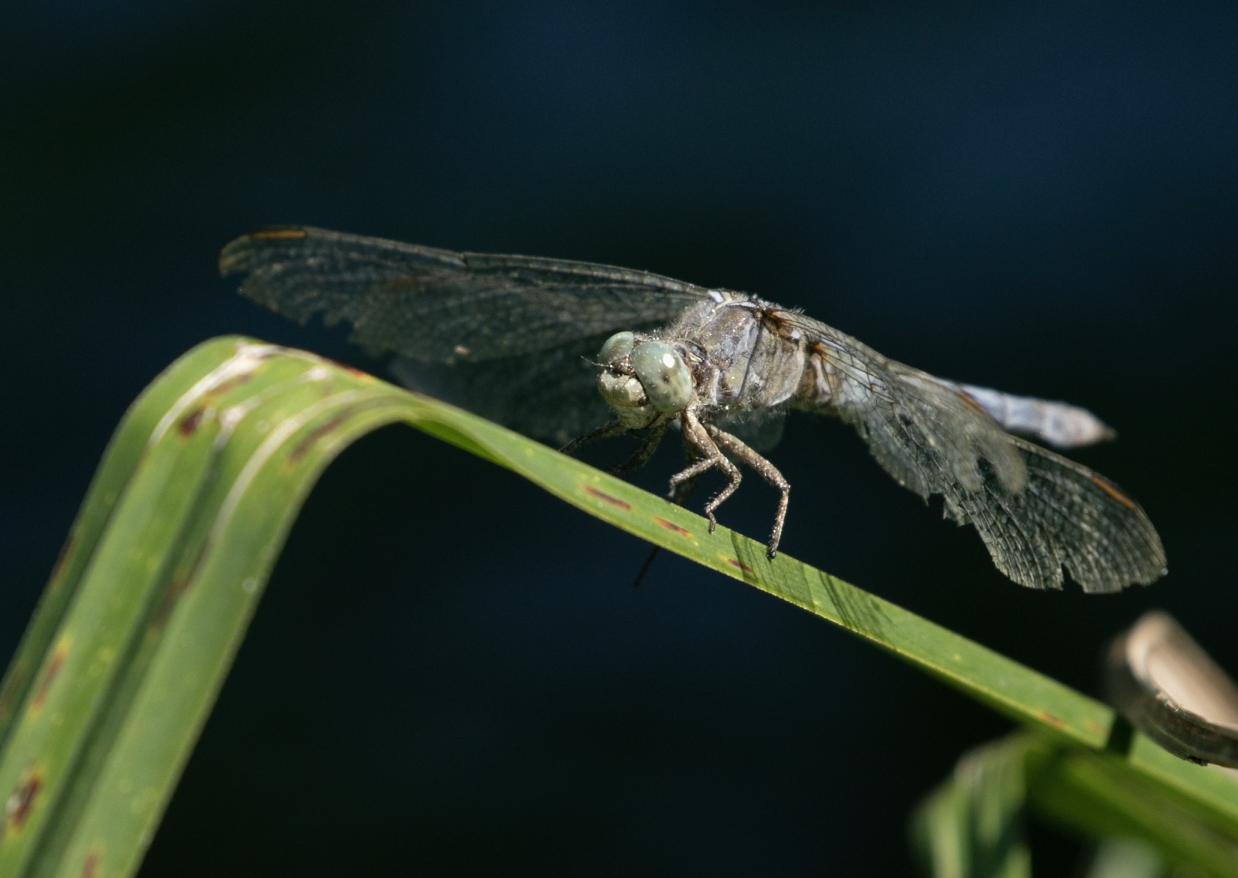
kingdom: Animalia
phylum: Arthropoda
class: Insecta
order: Odonata
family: Libellulidae
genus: Orthetrum
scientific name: Orthetrum coerulescens
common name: Keeled skimmer
